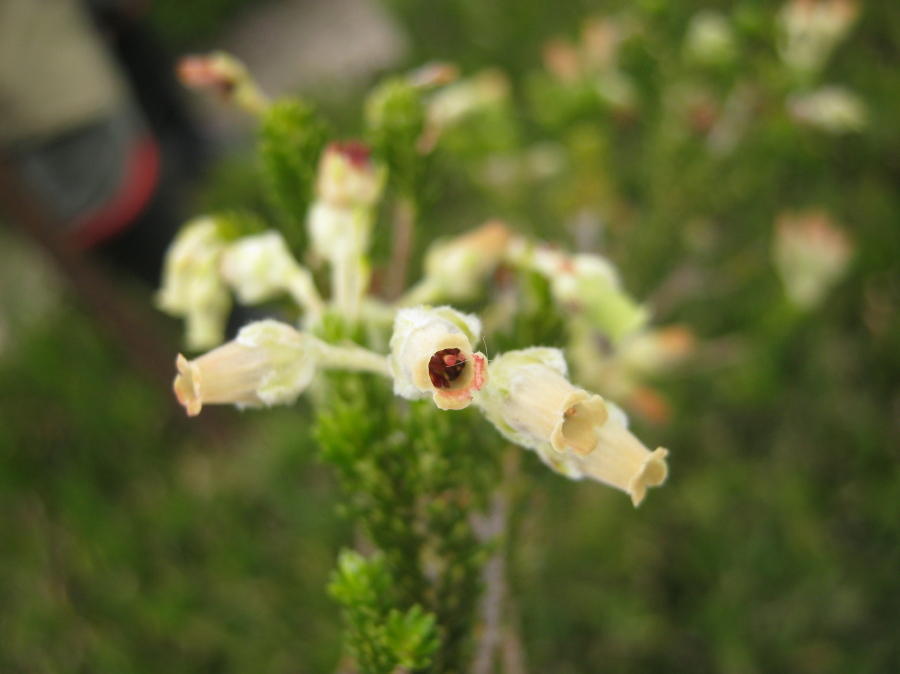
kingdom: Plantae
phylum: Tracheophyta
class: Magnoliopsida
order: Ericales
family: Ericaceae
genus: Erica
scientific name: Erica flocciflora
